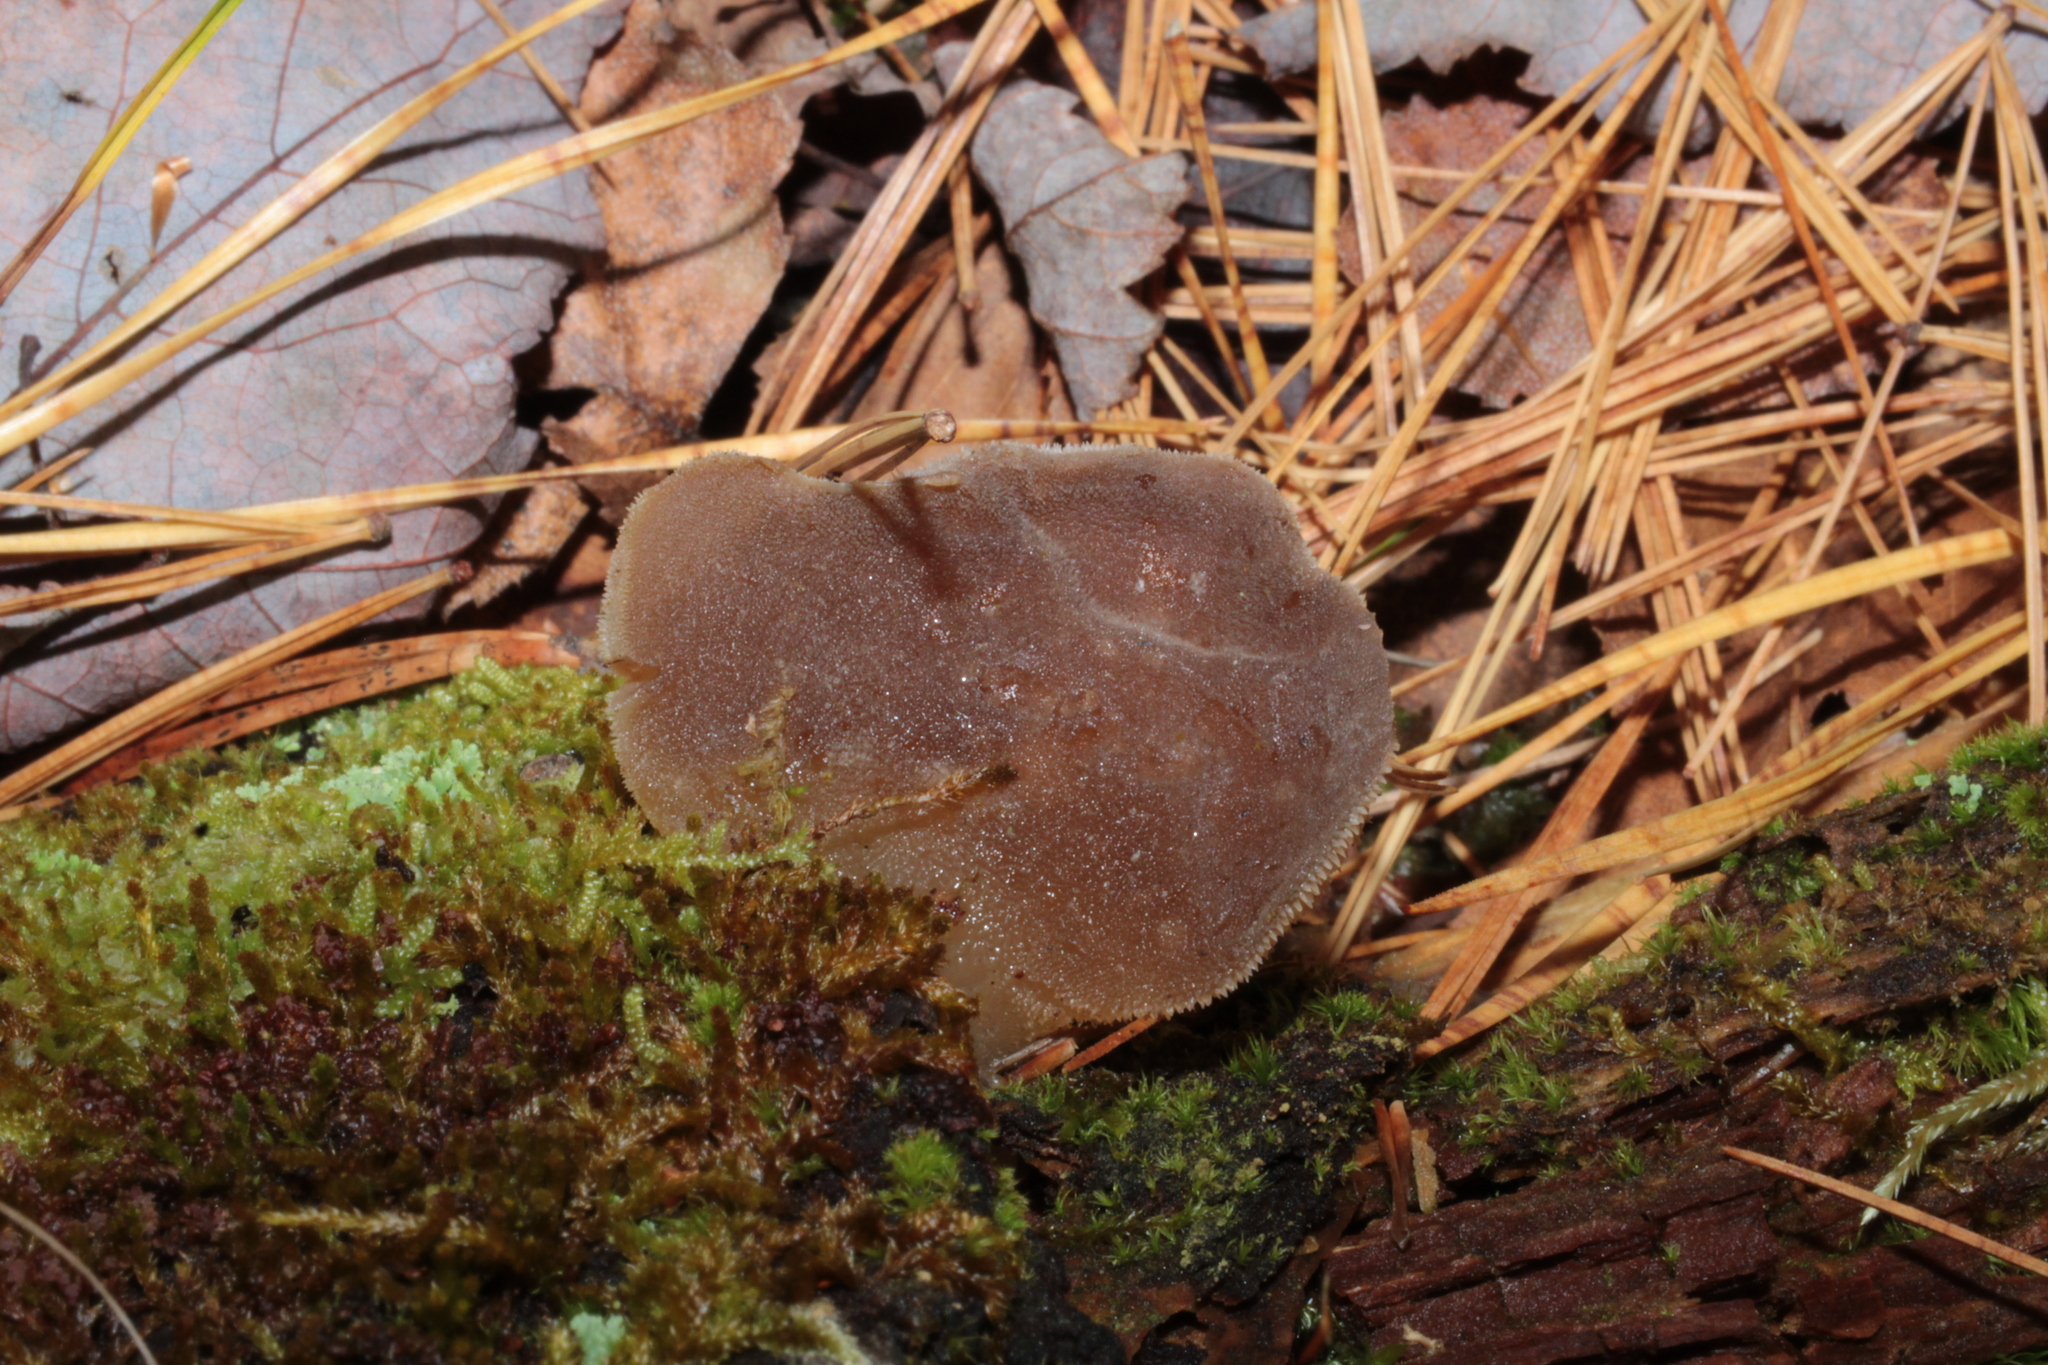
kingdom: Fungi
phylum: Basidiomycota
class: Agaricomycetes
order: Auriculariales
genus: Pseudohydnum
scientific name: Pseudohydnum gelatinosum
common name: Jelly tongue
